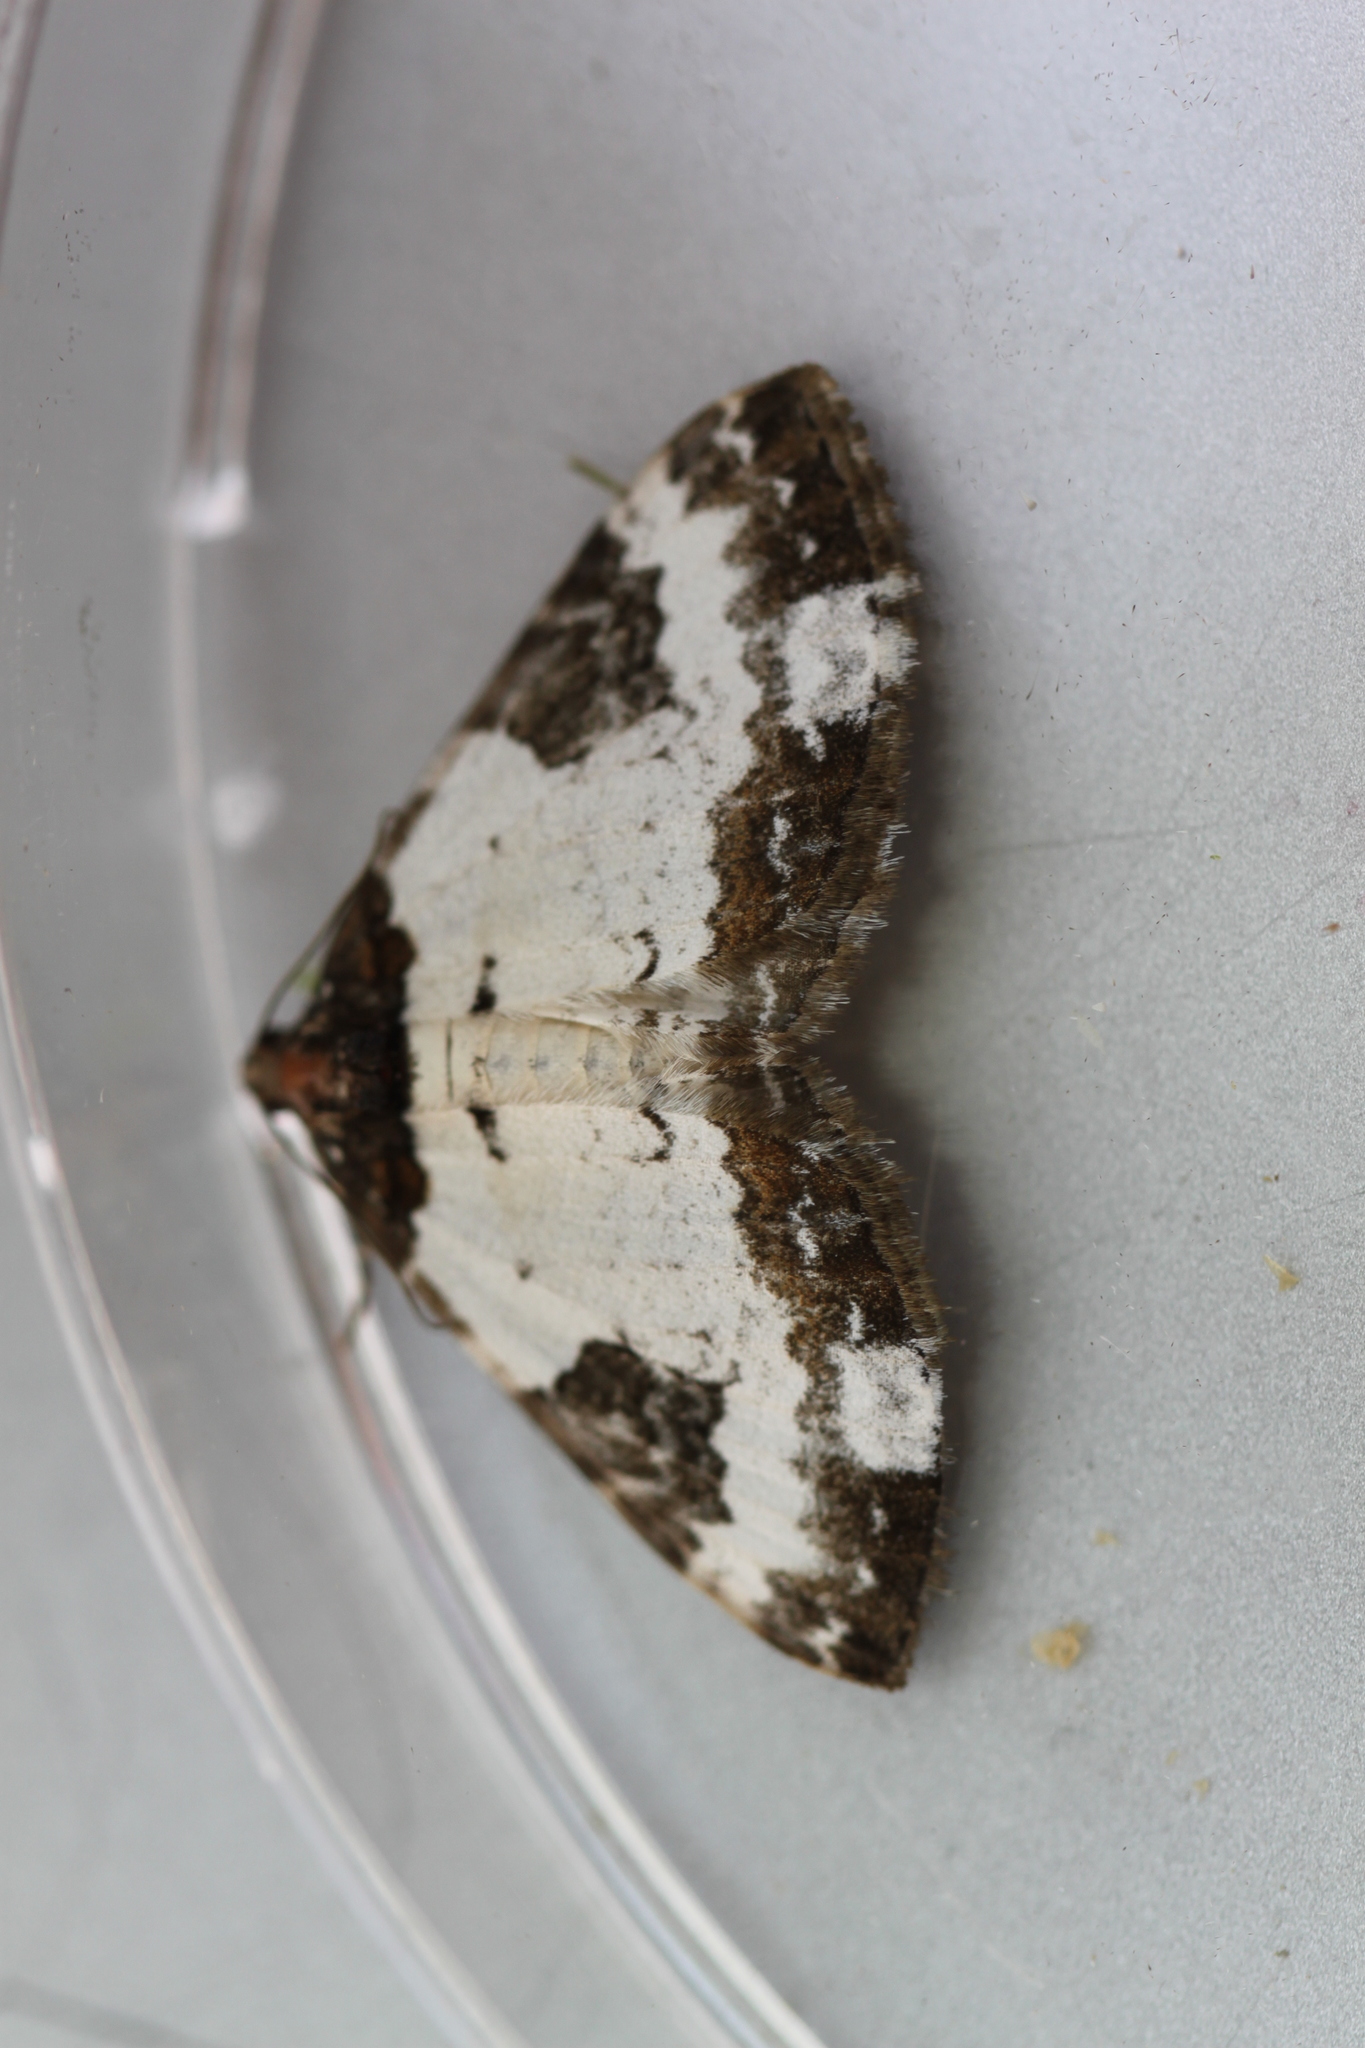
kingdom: Animalia
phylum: Arthropoda
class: Insecta
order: Lepidoptera
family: Geometridae
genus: Melanthia
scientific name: Melanthia procellata
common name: Pretty chalk carpet
